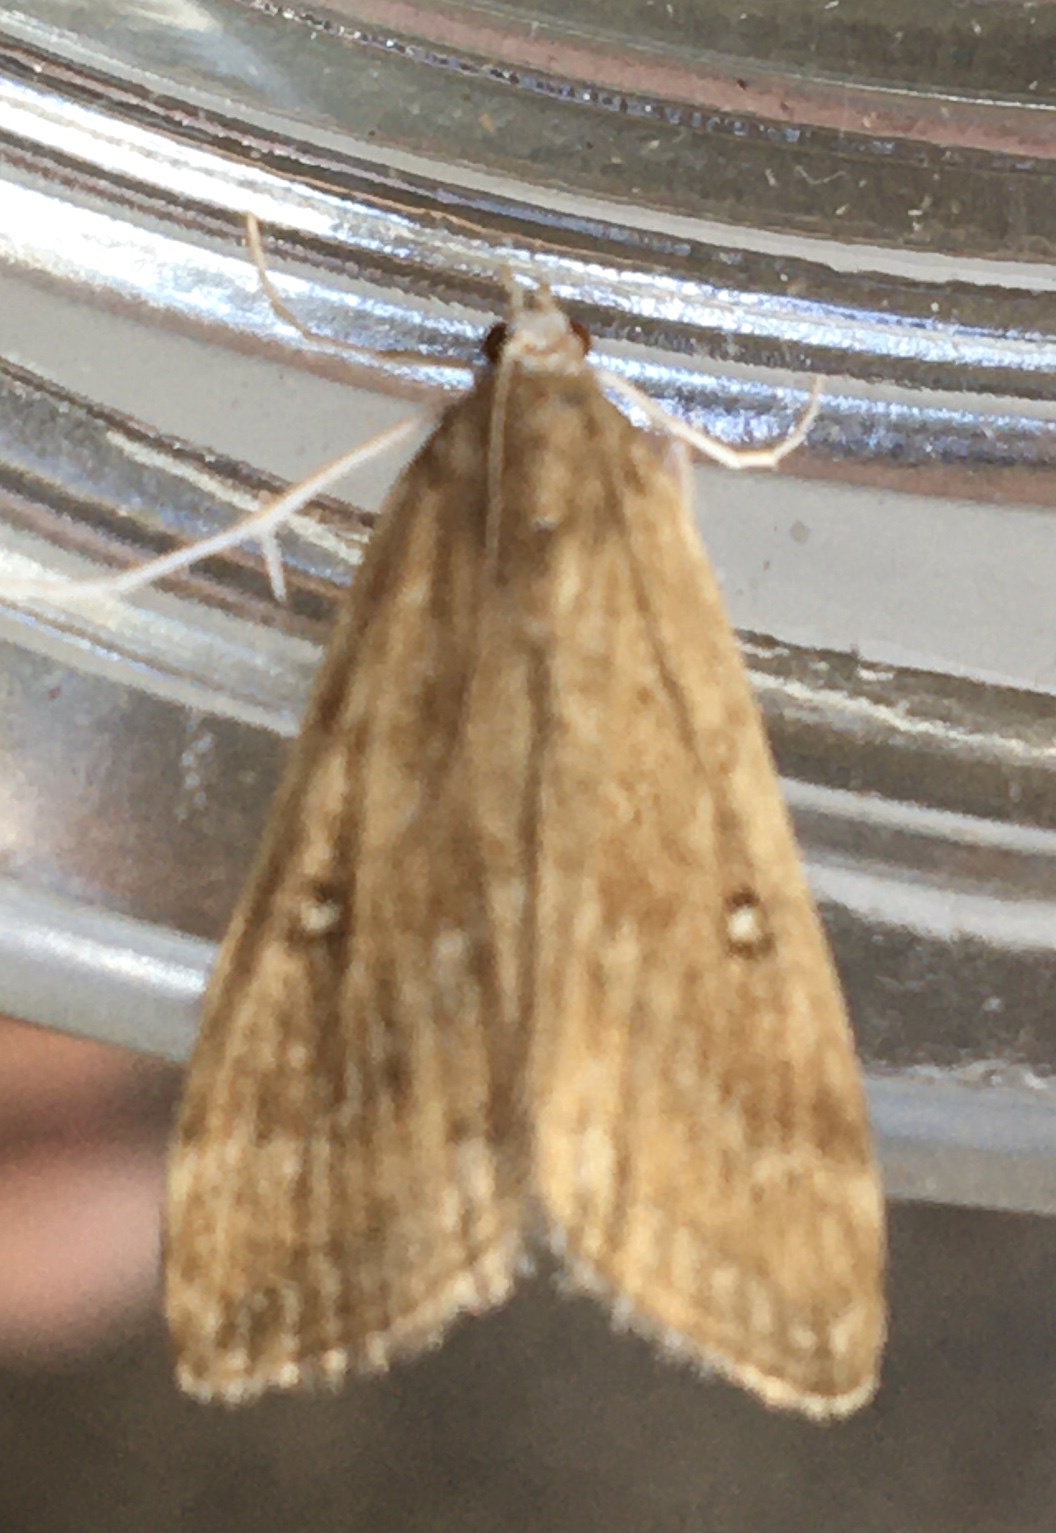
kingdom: Animalia
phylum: Arthropoda
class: Insecta
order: Lepidoptera
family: Crambidae
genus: Parapoynx
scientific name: Parapoynx stratiotata
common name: Ringed china-mark
